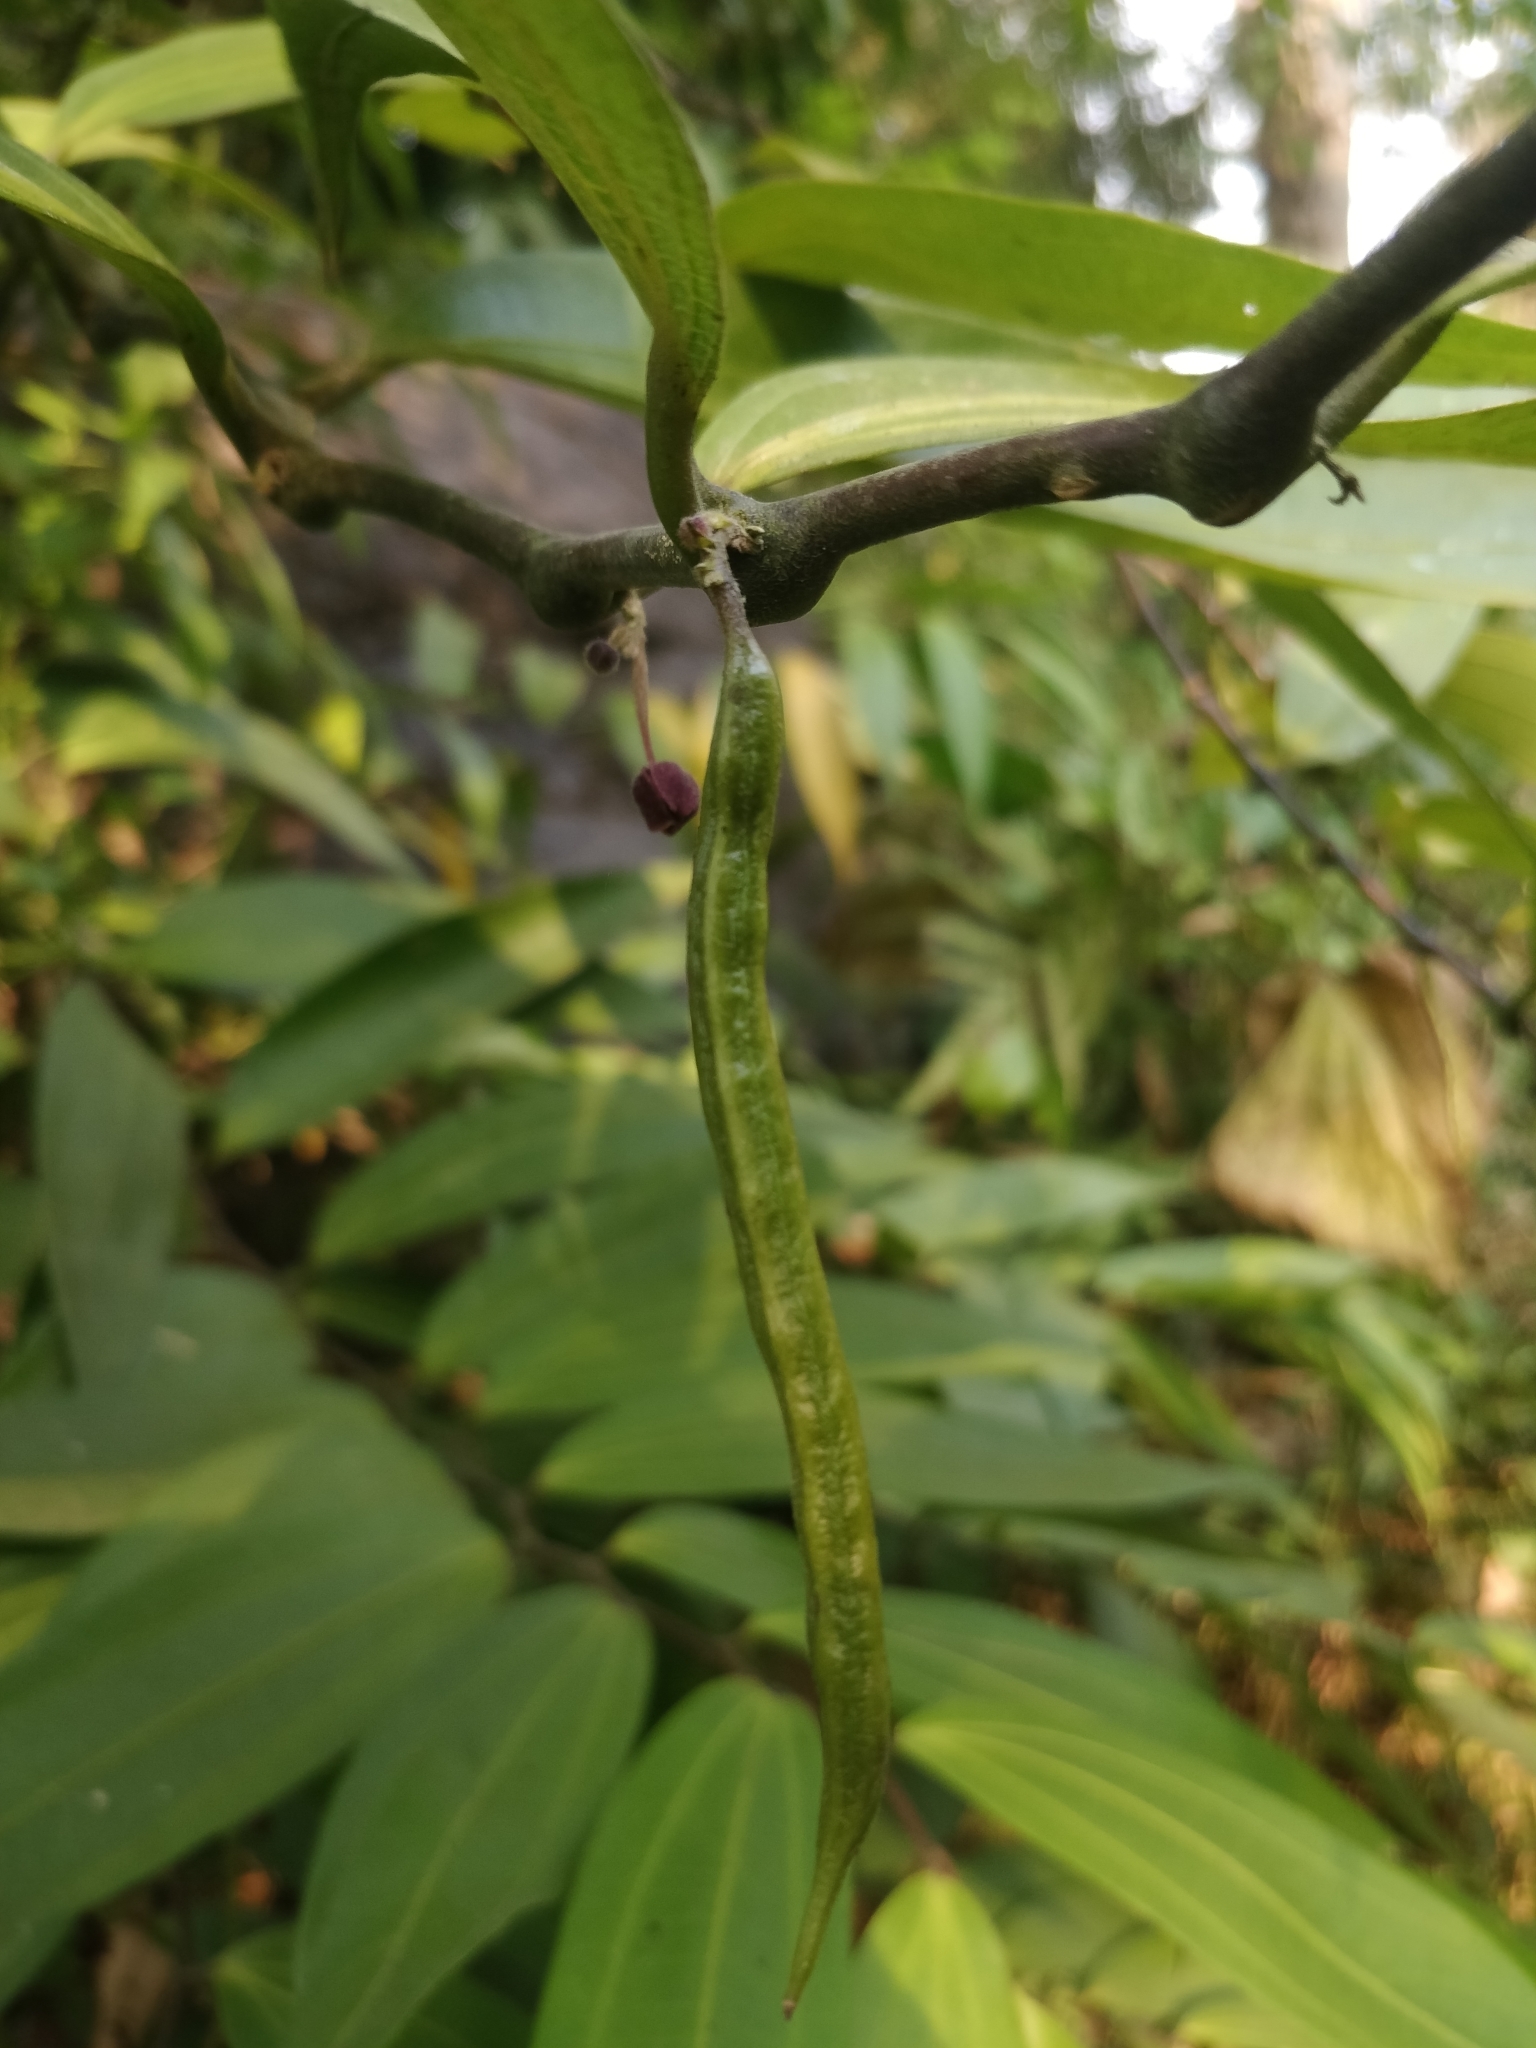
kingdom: Plantae
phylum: Tracheophyta
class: Magnoliopsida
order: Piperales
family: Aristolochiaceae
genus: Thottea
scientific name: Thottea siliquosa
